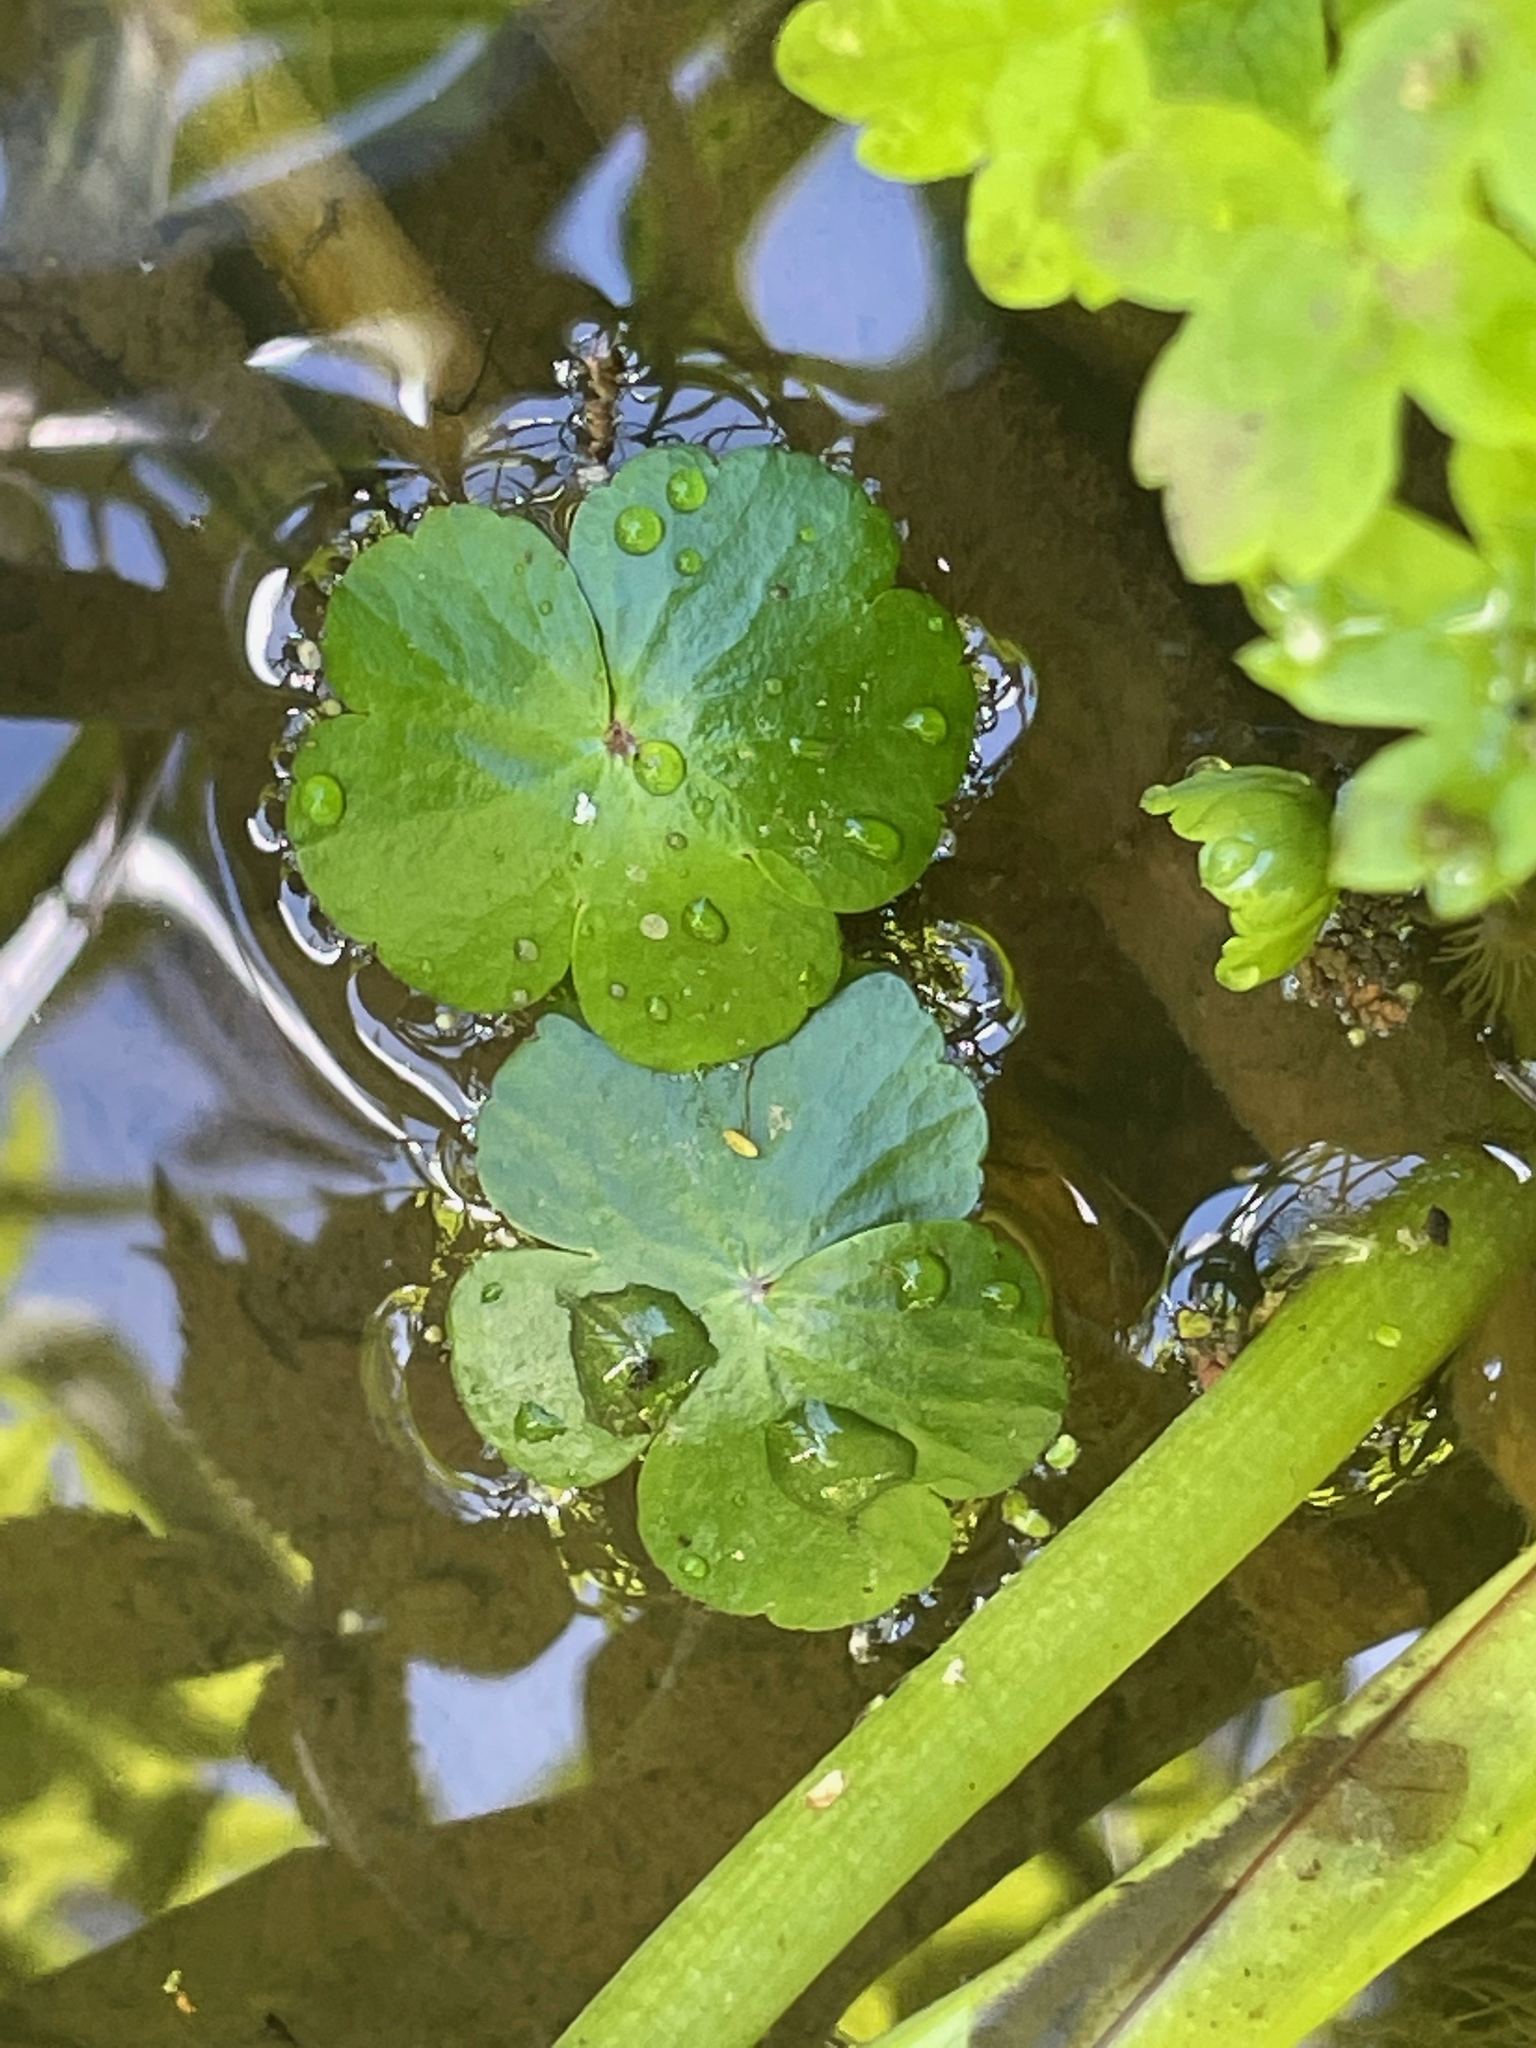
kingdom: Plantae
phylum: Tracheophyta
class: Magnoliopsida
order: Apiales
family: Araliaceae
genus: Hydrocotyle
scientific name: Hydrocotyle ranunculoides
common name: Floating pennywort
